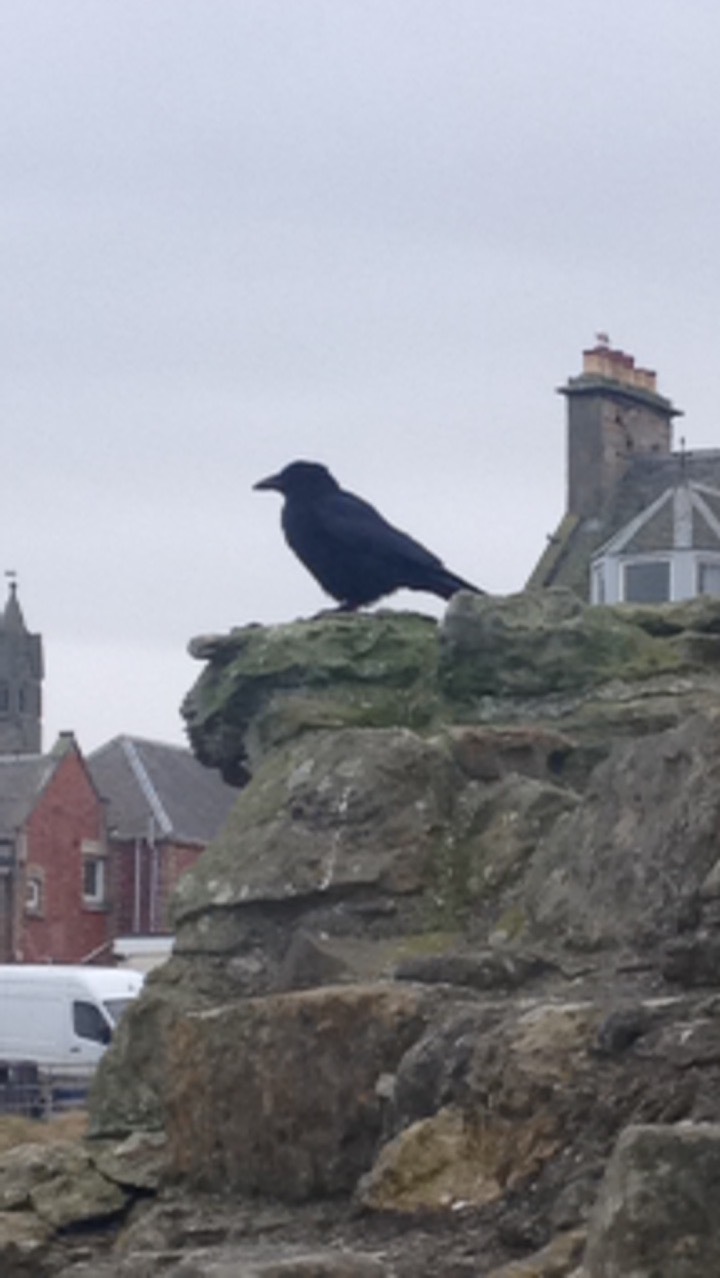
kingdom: Animalia
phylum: Chordata
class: Aves
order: Passeriformes
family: Corvidae
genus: Corvus
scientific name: Corvus corone
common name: Carrion crow
